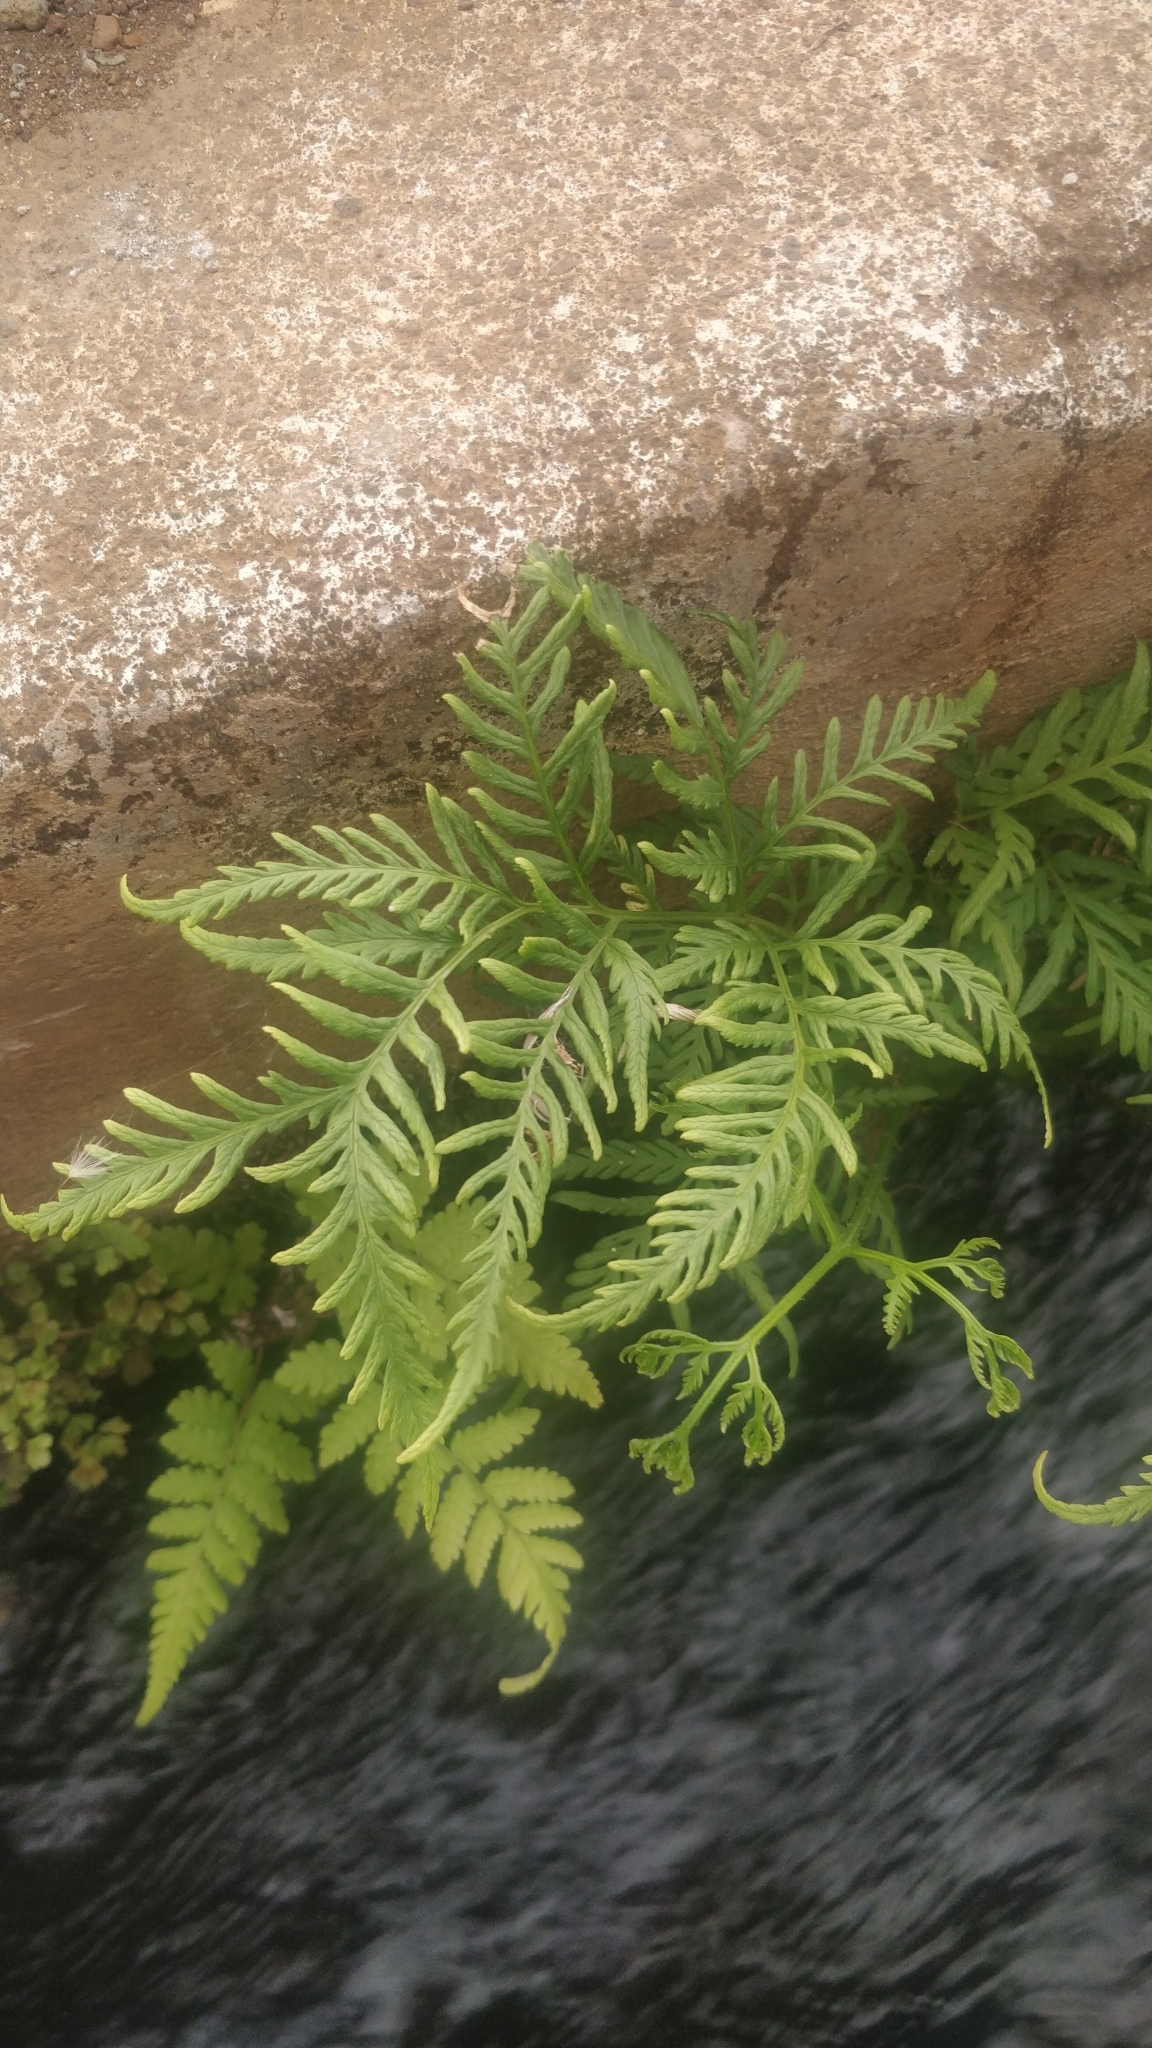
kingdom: Plantae
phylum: Tracheophyta
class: Polypodiopsida
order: Polypodiales
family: Pteridaceae
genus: Pteris
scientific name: Pteris tremula
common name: Australian brake
